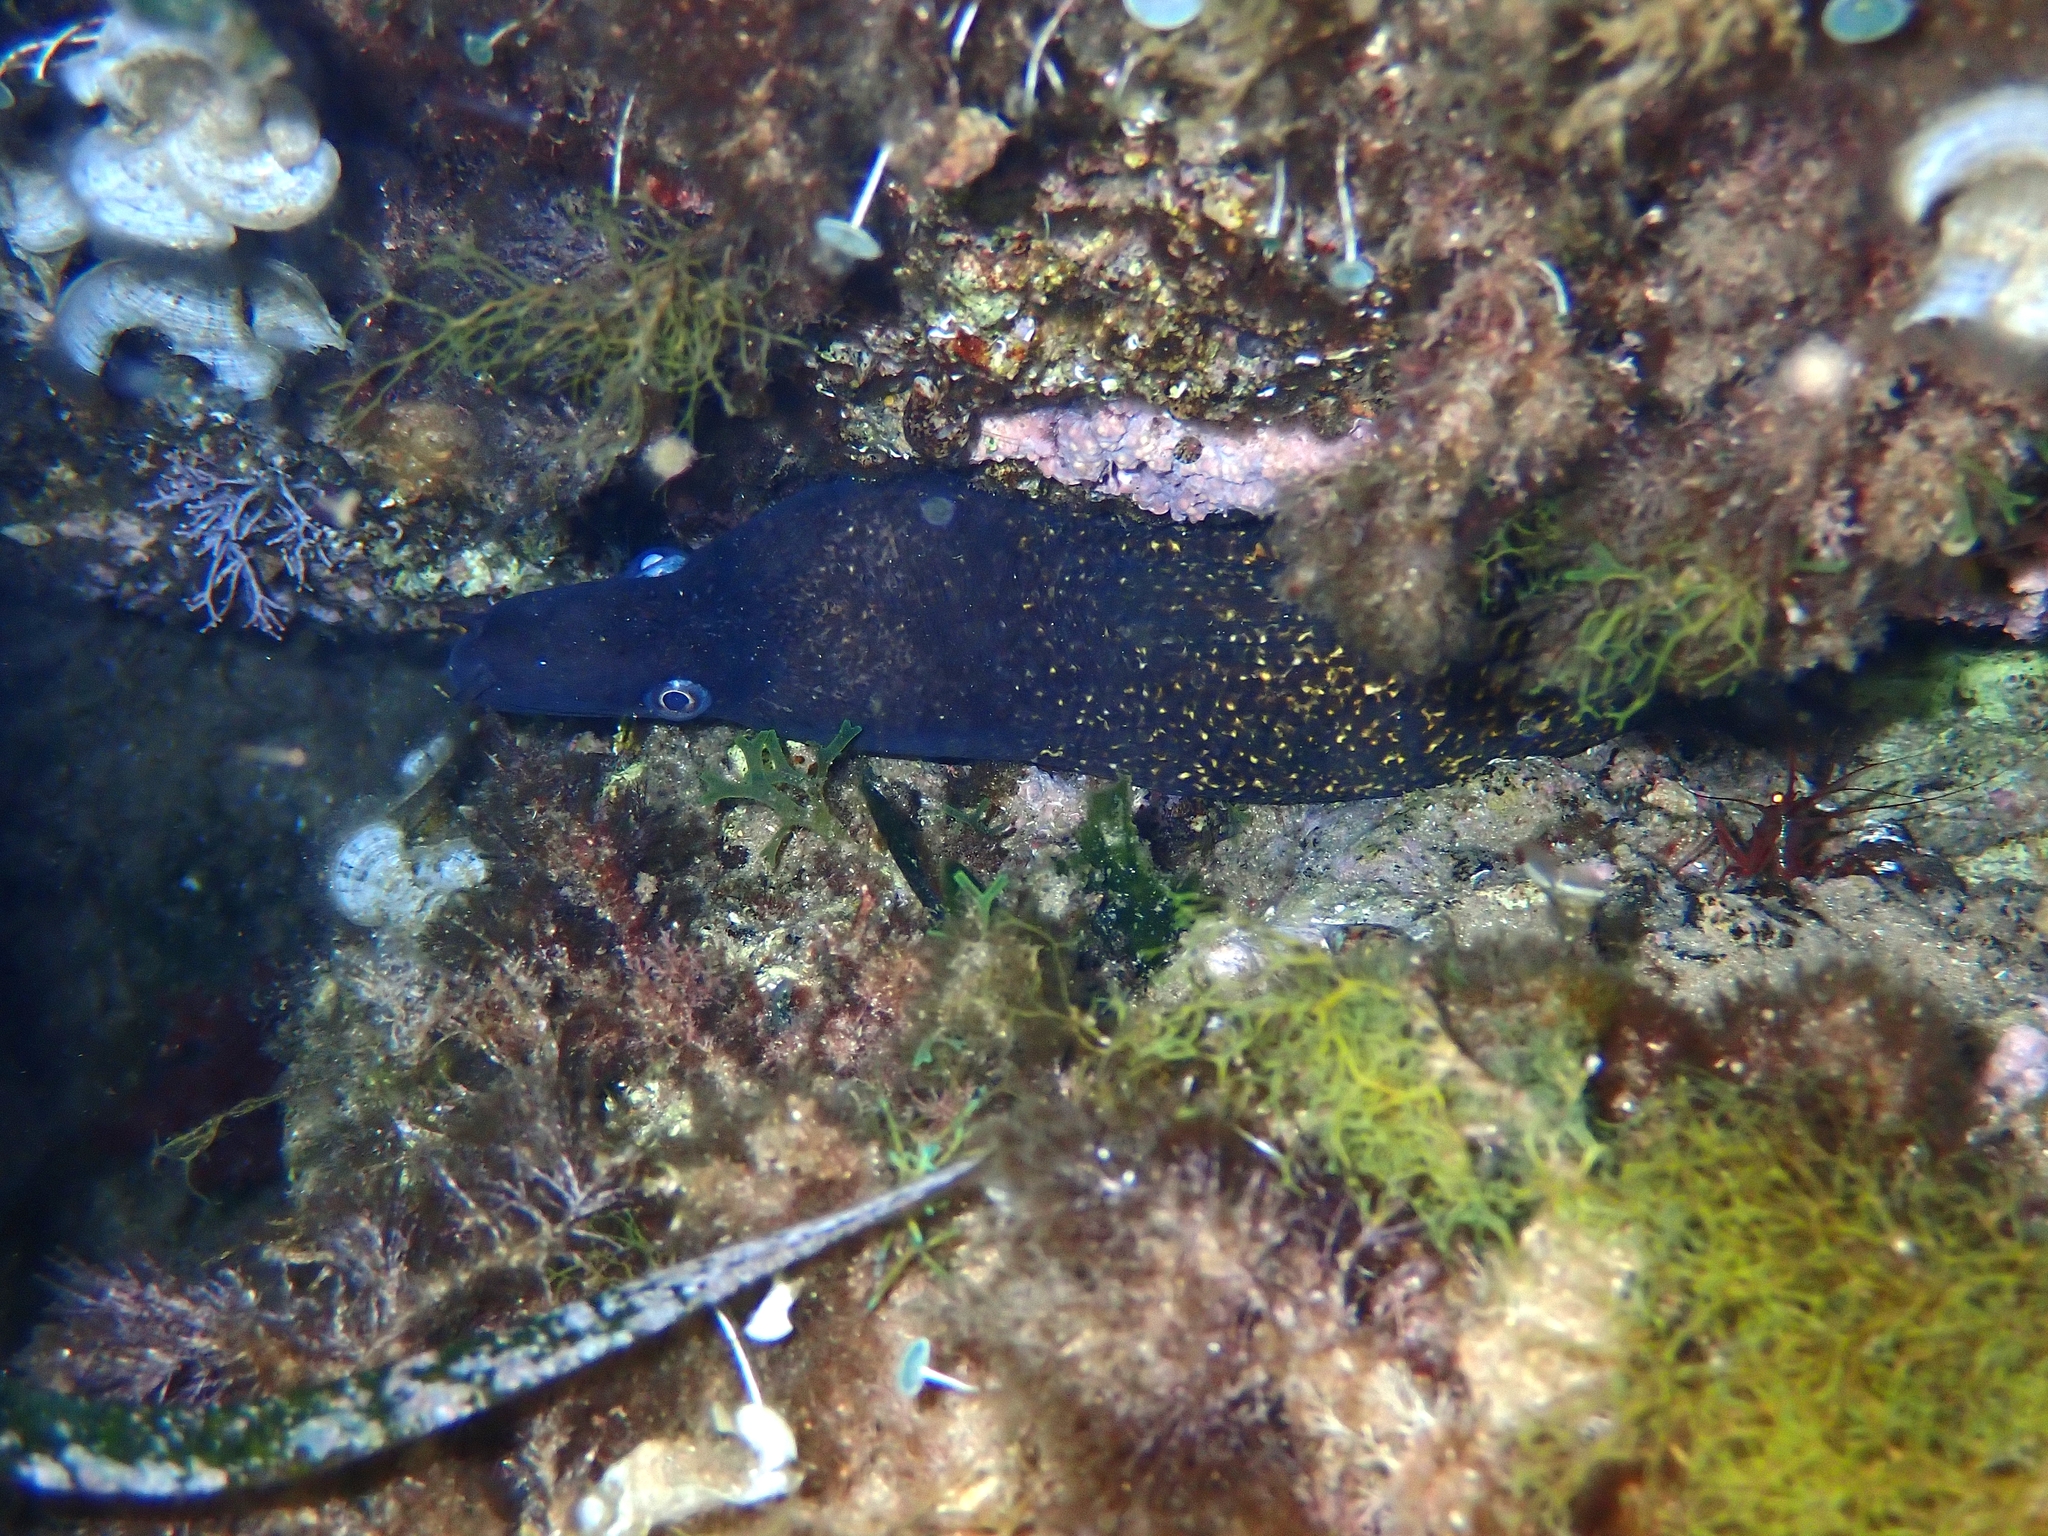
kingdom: Animalia
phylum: Chordata
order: Anguilliformes
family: Muraenidae
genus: Muraena
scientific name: Muraena helena
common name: Mediterranean moray
